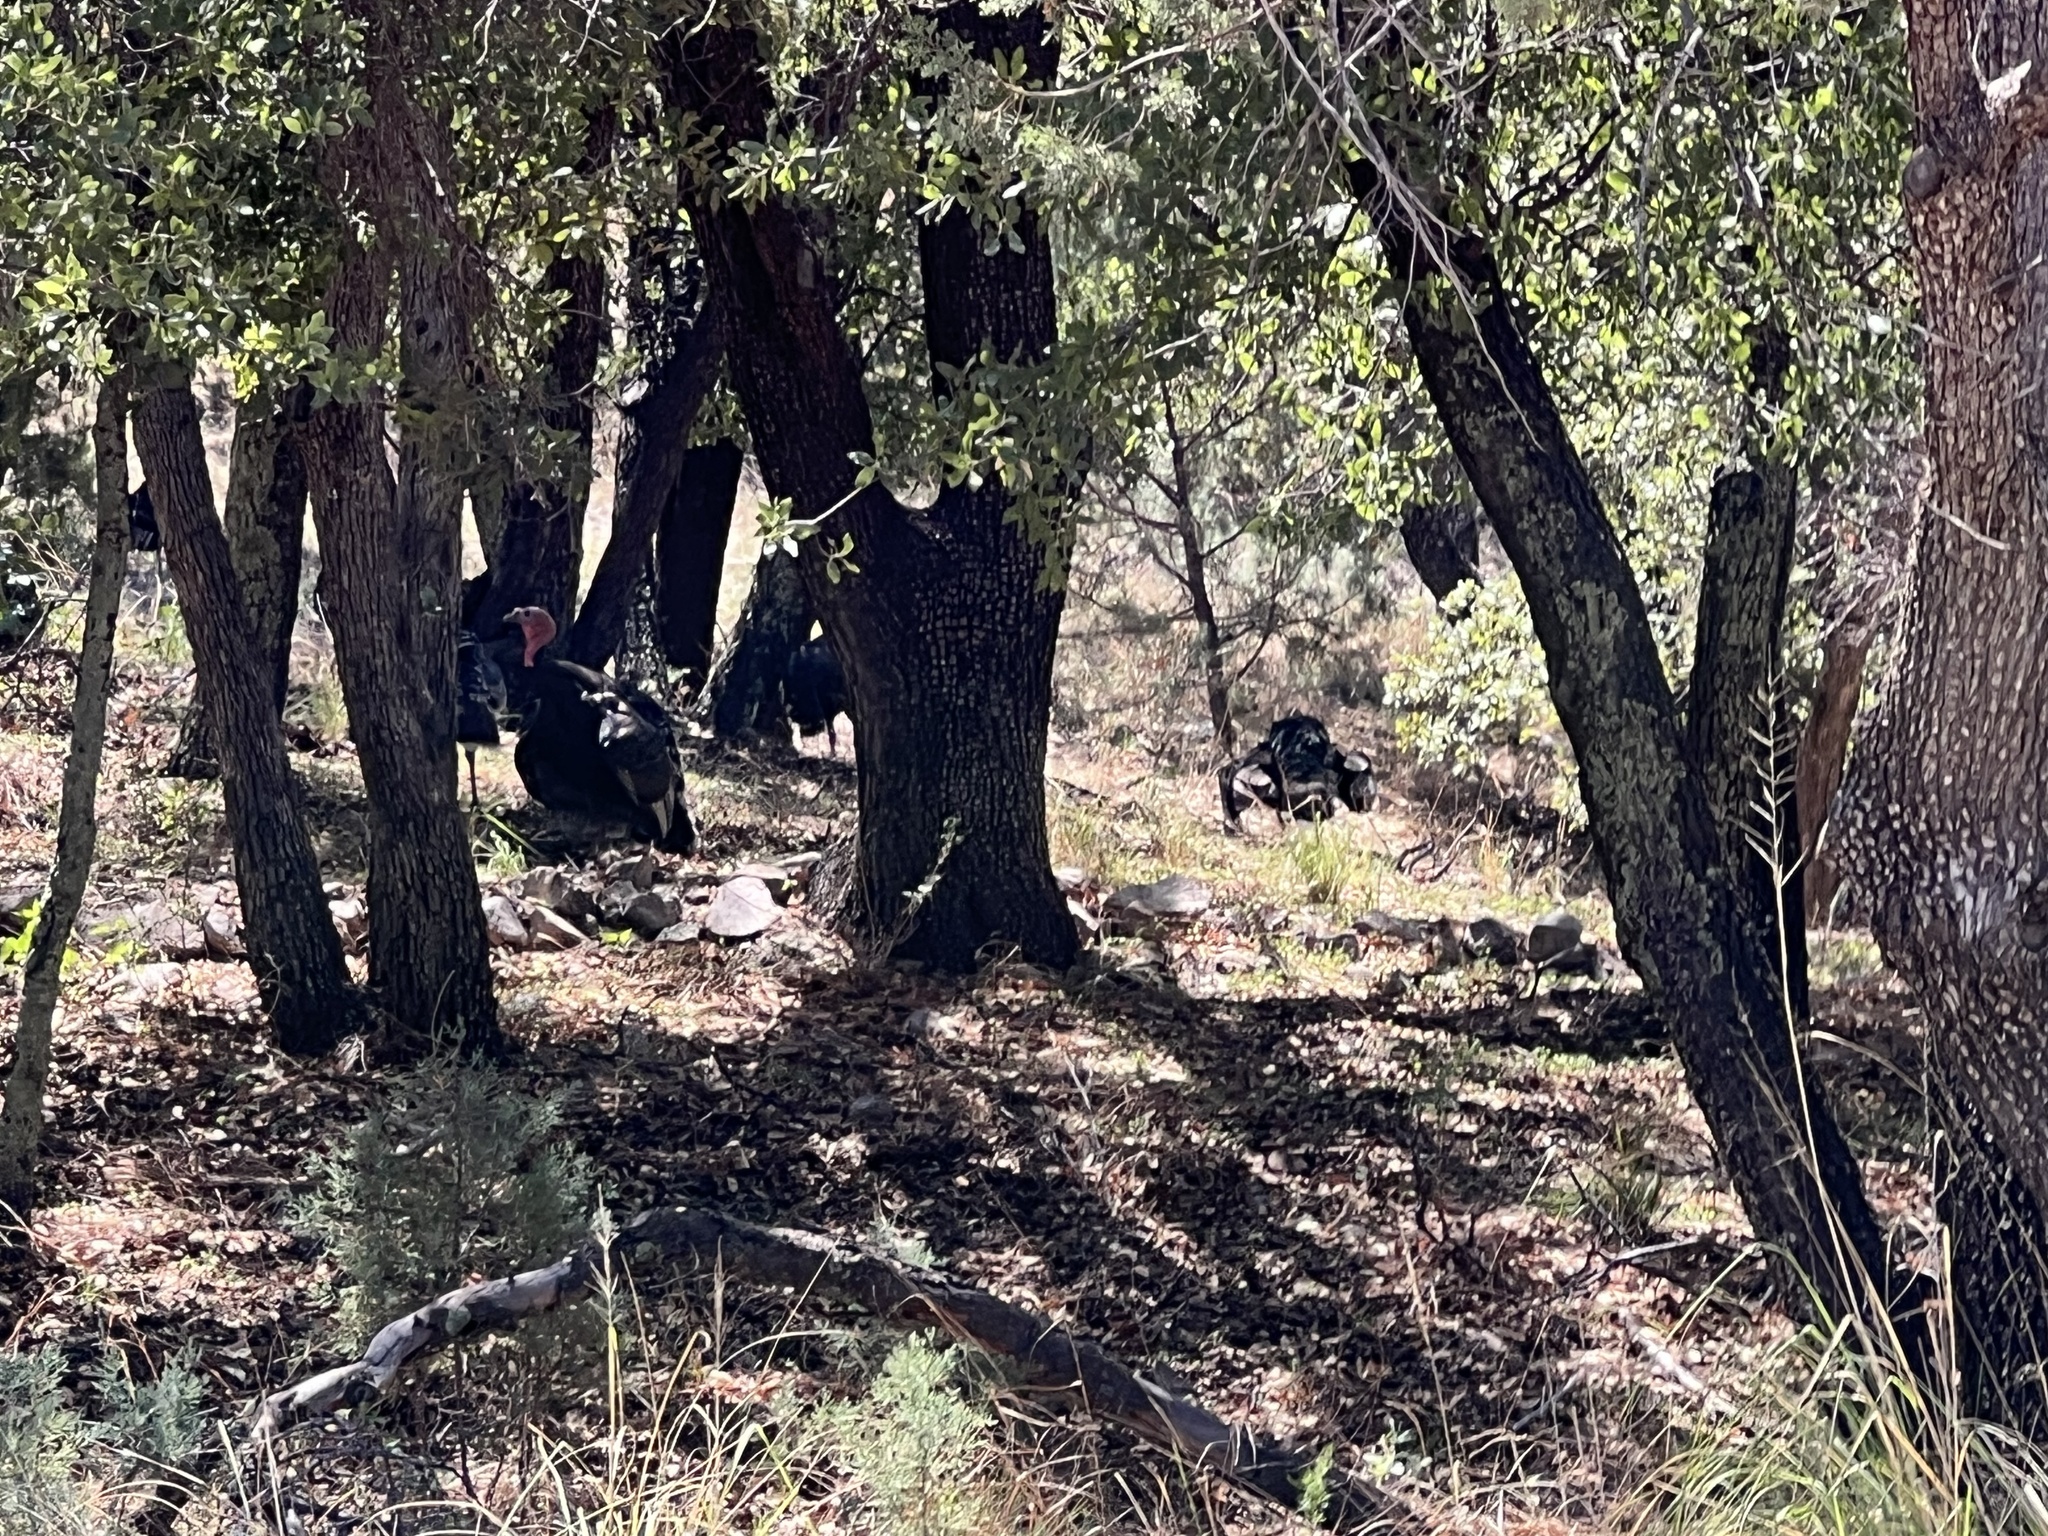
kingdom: Animalia
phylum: Chordata
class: Aves
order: Galliformes
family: Phasianidae
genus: Meleagris
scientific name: Meleagris gallopavo
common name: Wild turkey
